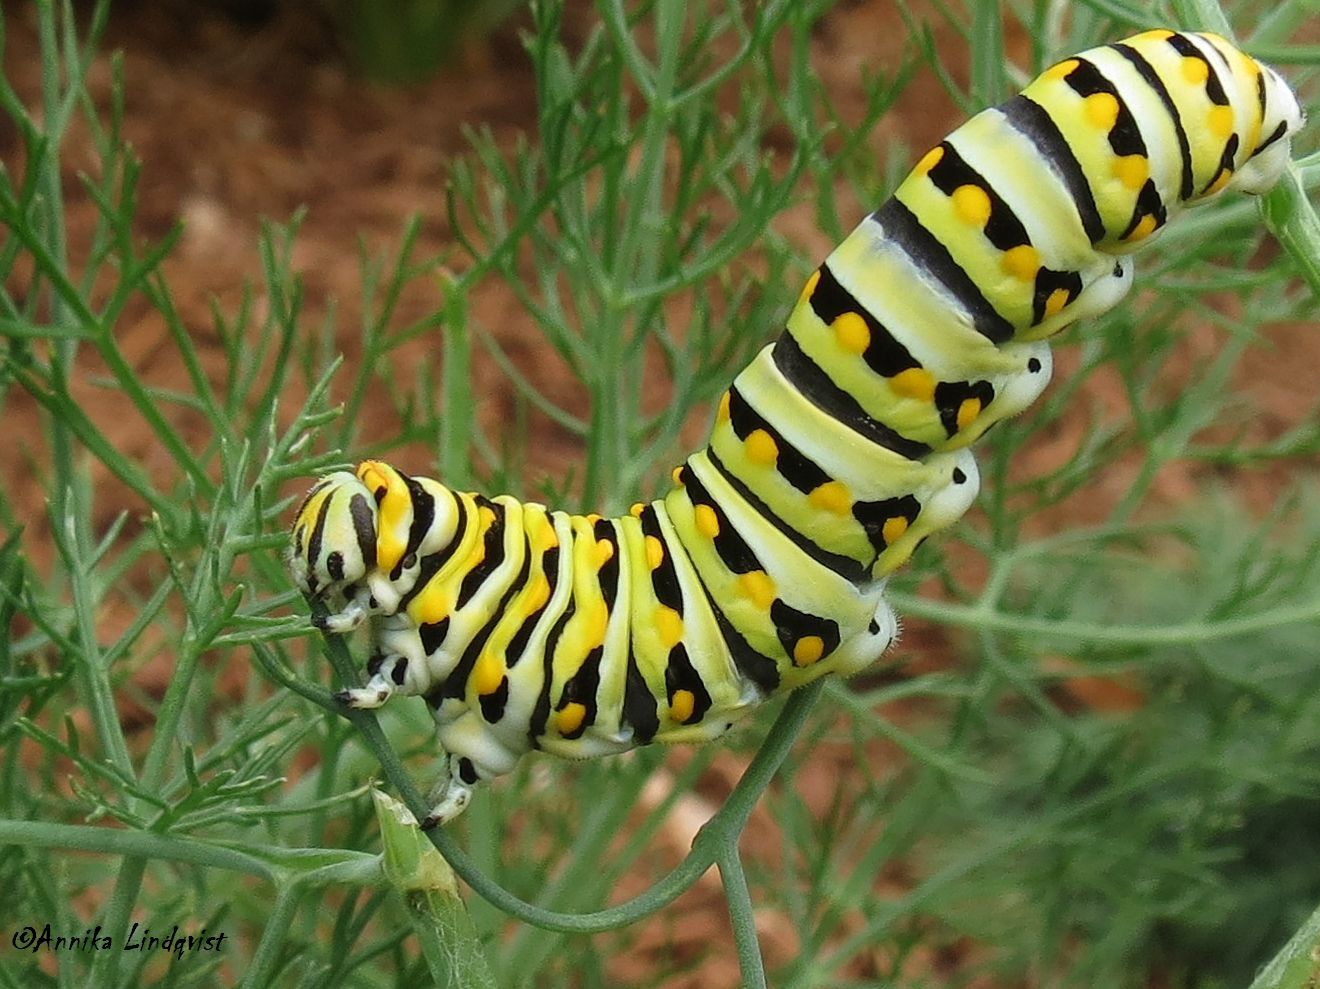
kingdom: Animalia
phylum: Arthropoda
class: Insecta
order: Lepidoptera
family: Papilionidae
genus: Papilio
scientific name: Papilio polyxenes
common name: Black swallowtail
